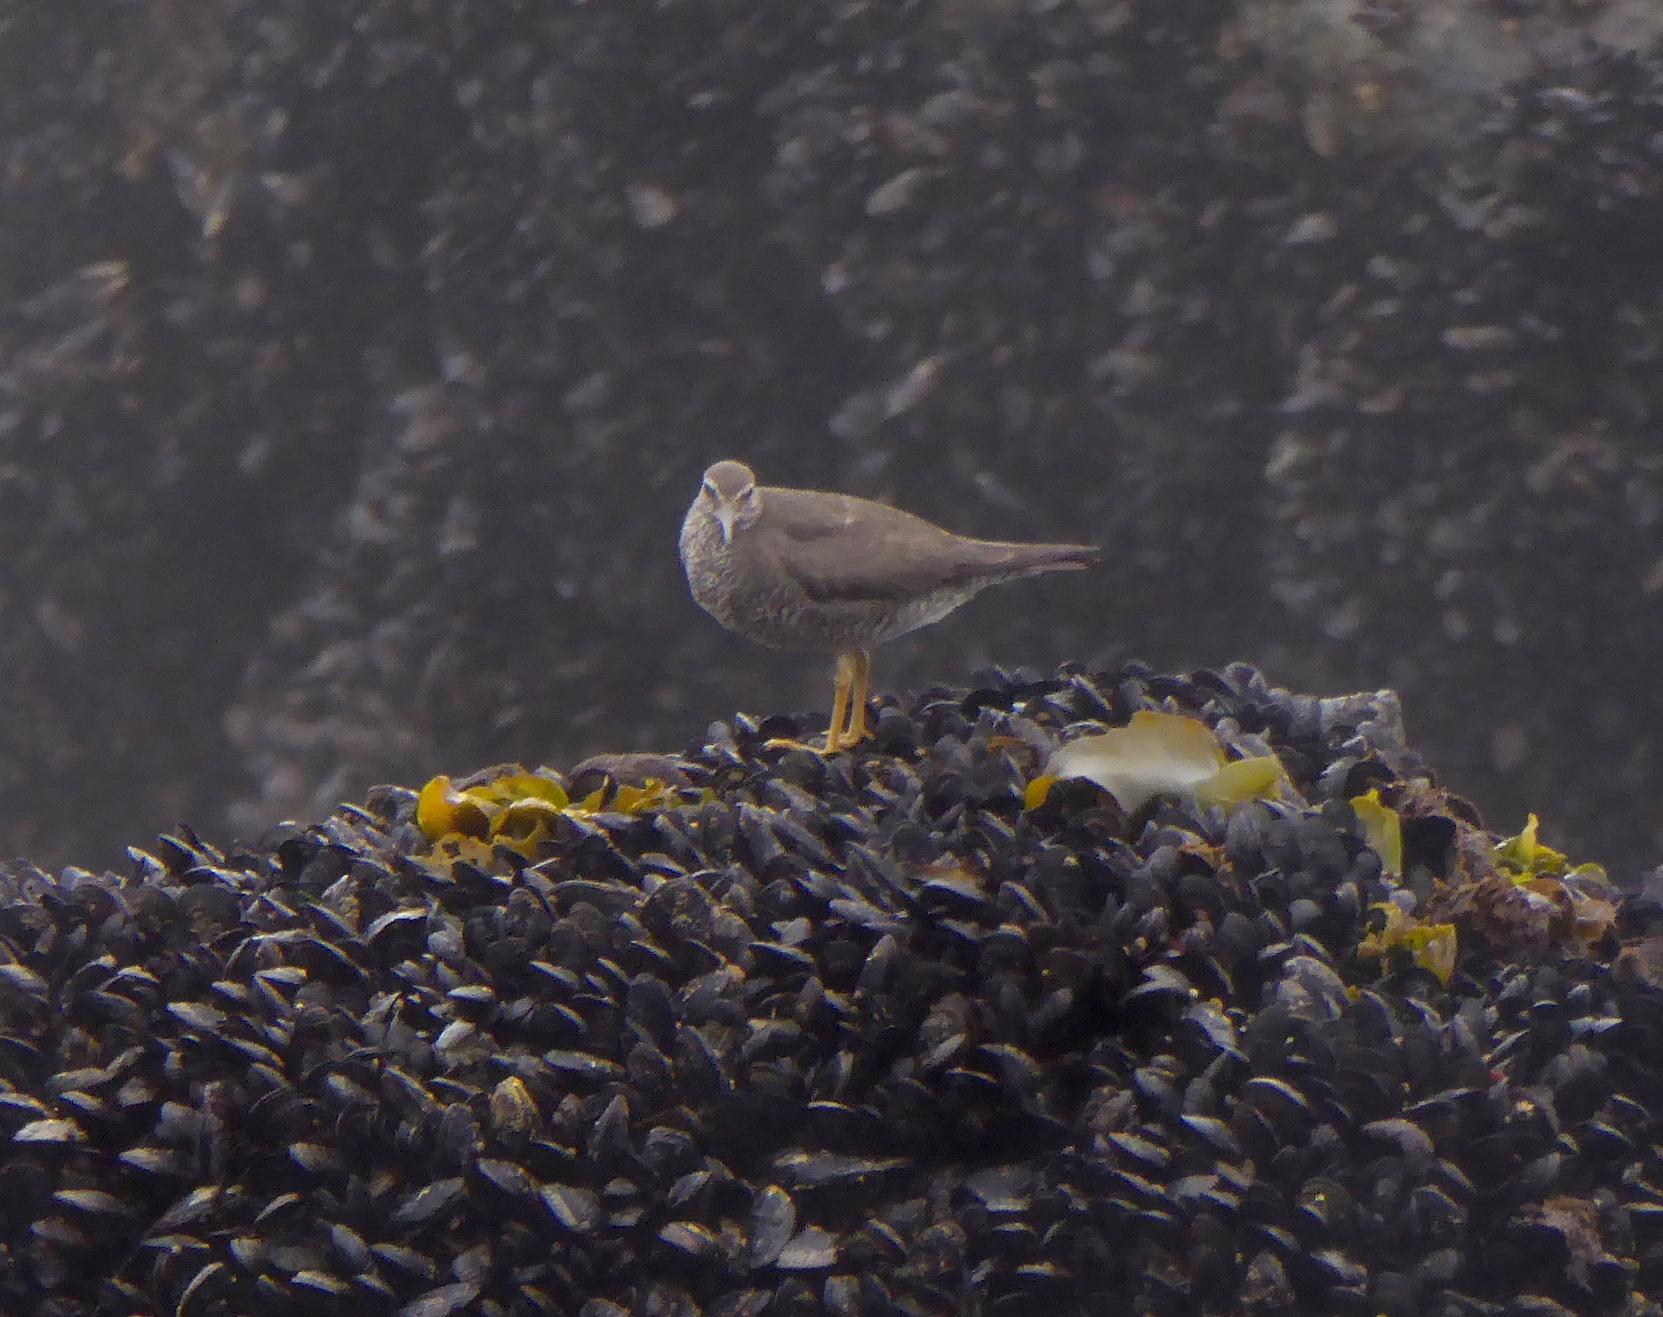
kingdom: Animalia
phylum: Chordata
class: Aves
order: Charadriiformes
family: Scolopacidae
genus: Tringa
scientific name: Tringa incana
